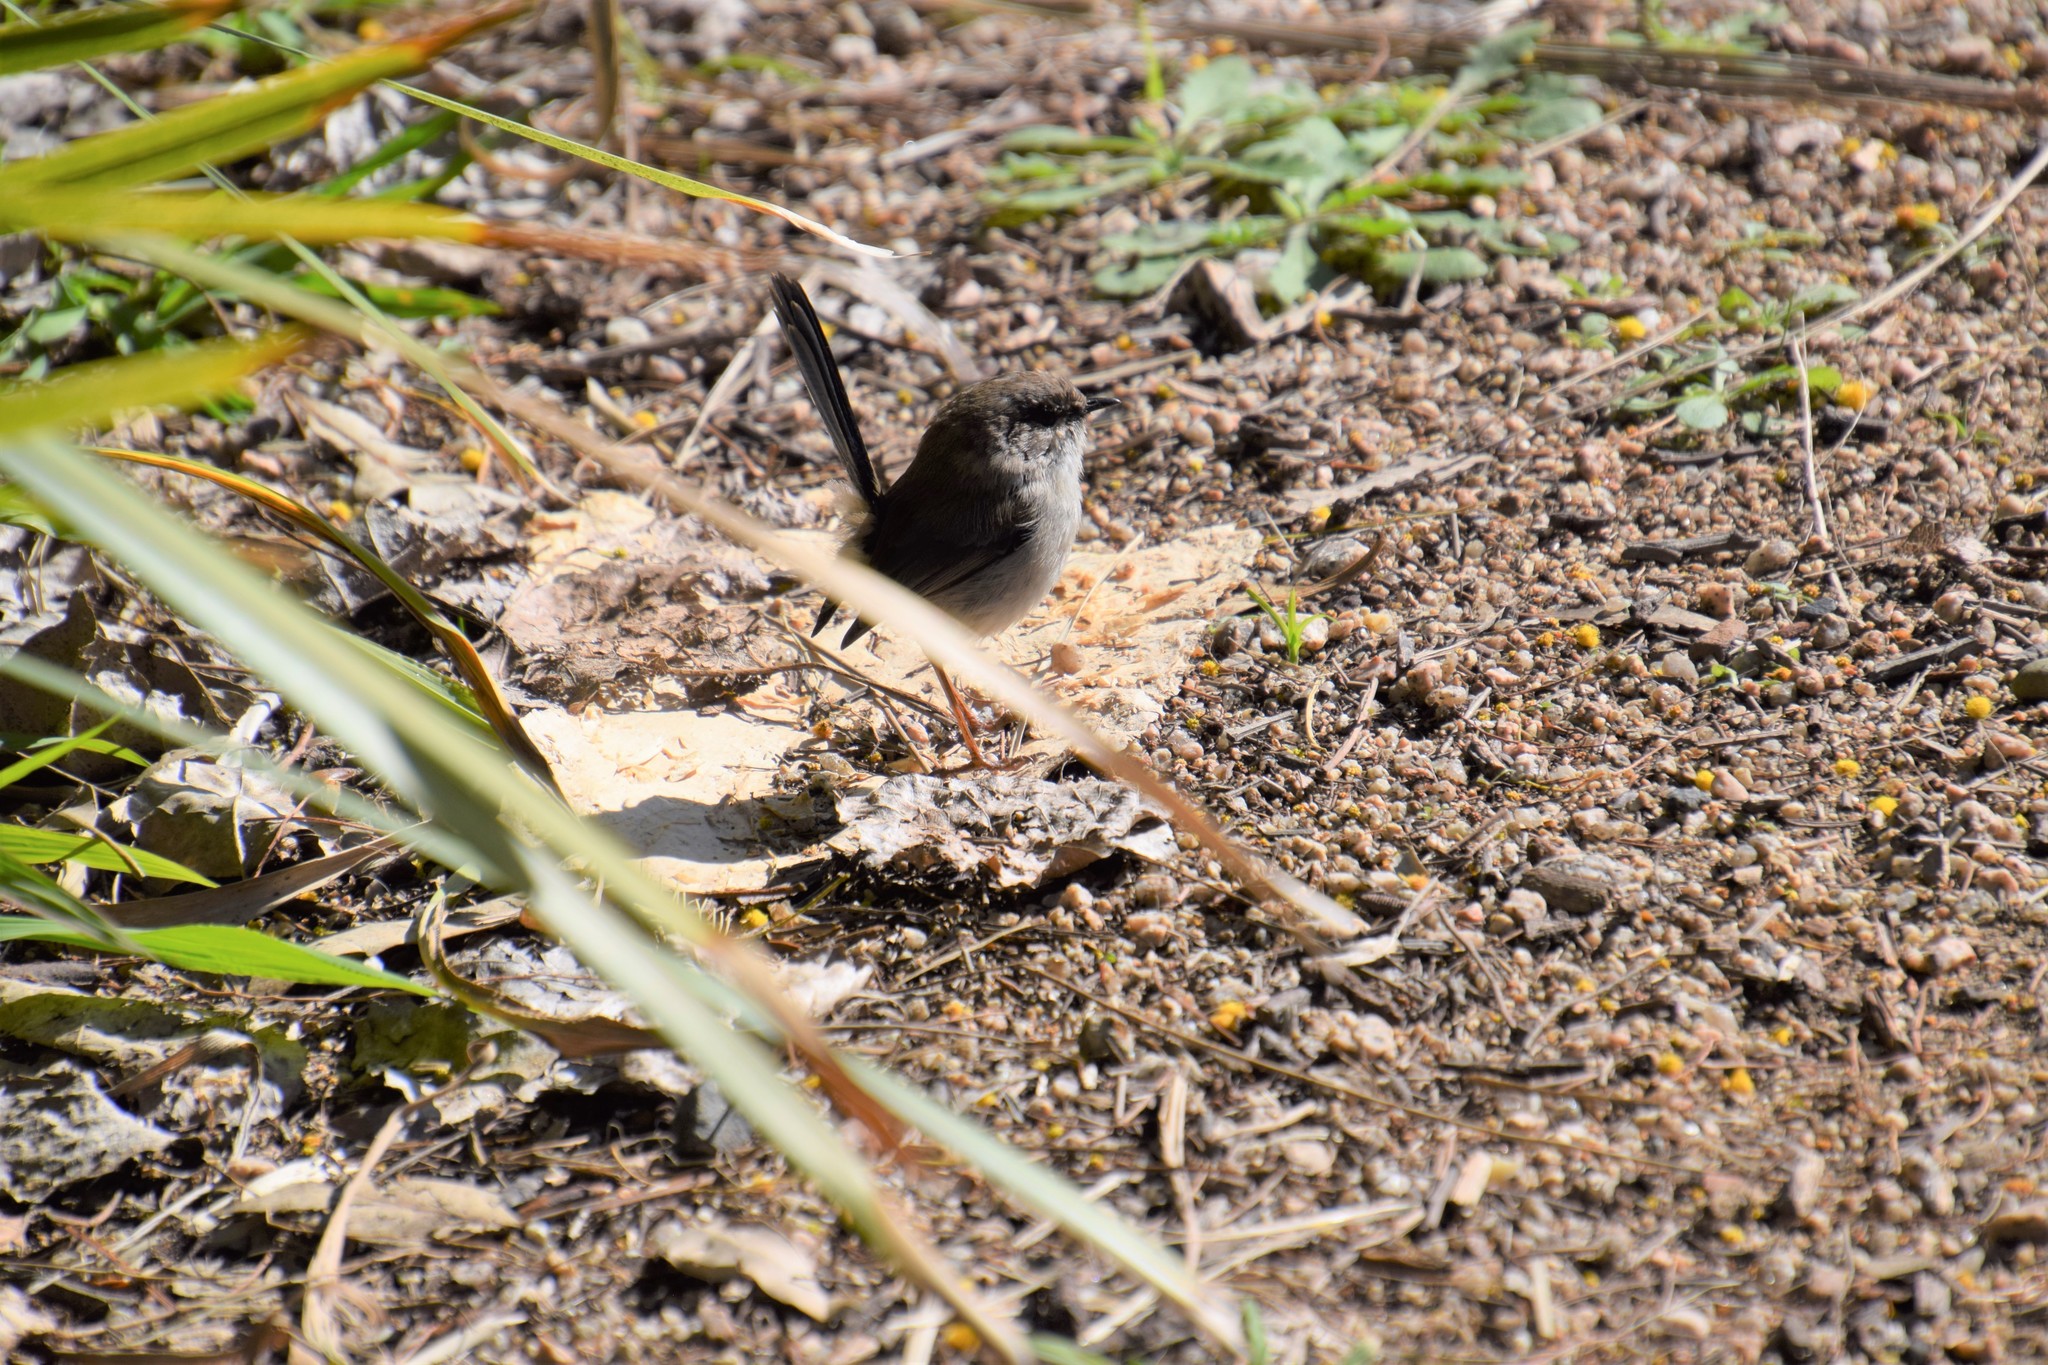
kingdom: Animalia
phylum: Chordata
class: Aves
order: Passeriformes
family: Maluridae
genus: Malurus
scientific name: Malurus cyaneus
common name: Superb fairywren
